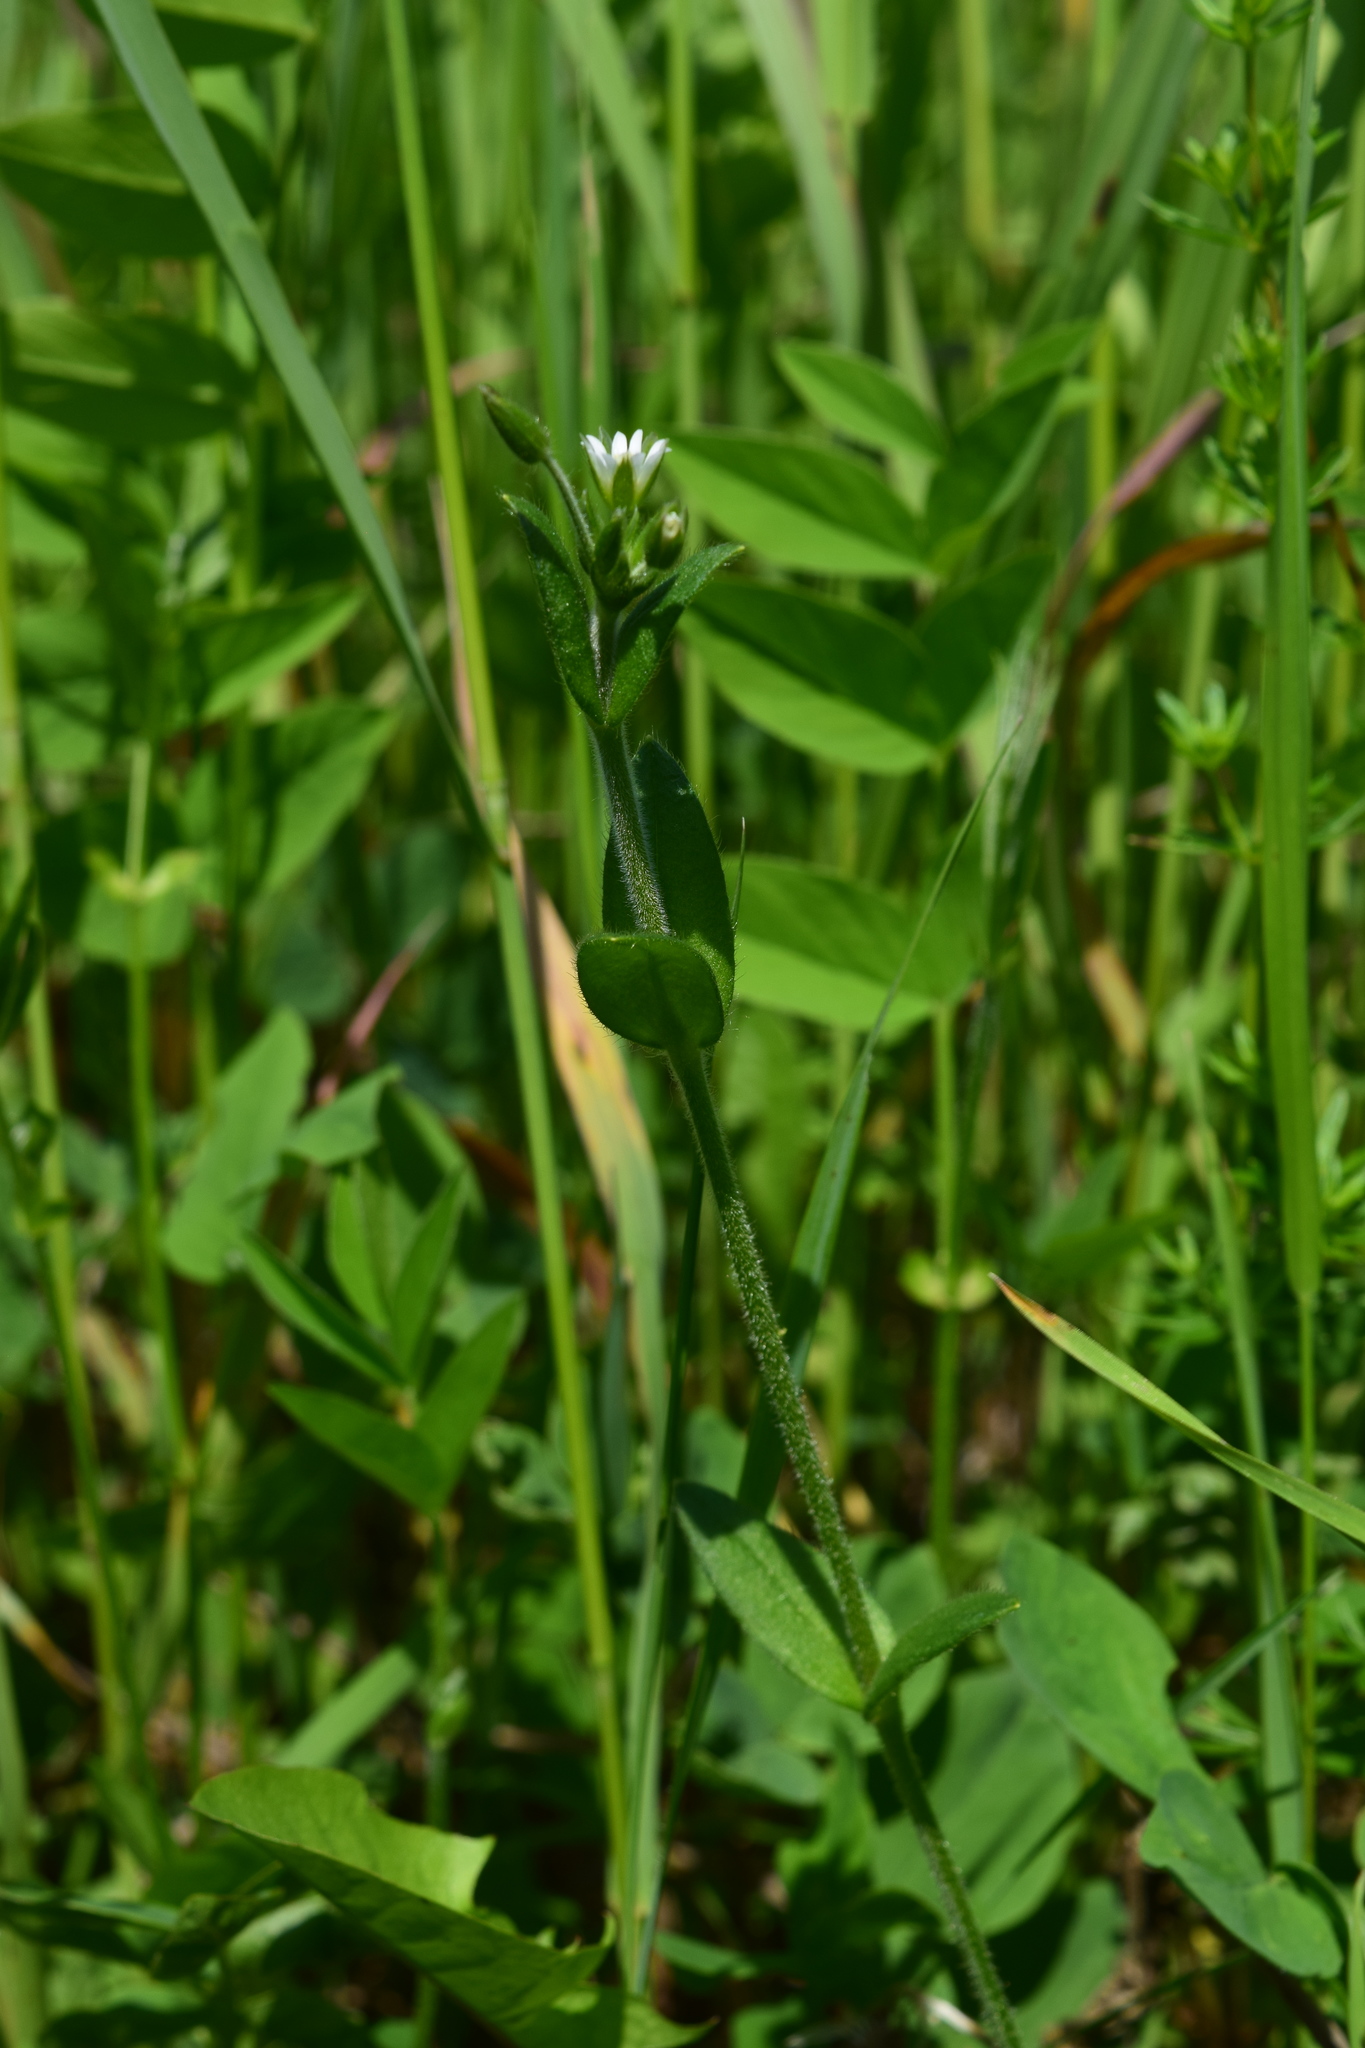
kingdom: Plantae
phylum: Tracheophyta
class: Magnoliopsida
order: Caryophyllales
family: Caryophyllaceae
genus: Cerastium
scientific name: Cerastium holosteoides
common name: Big chickweed
